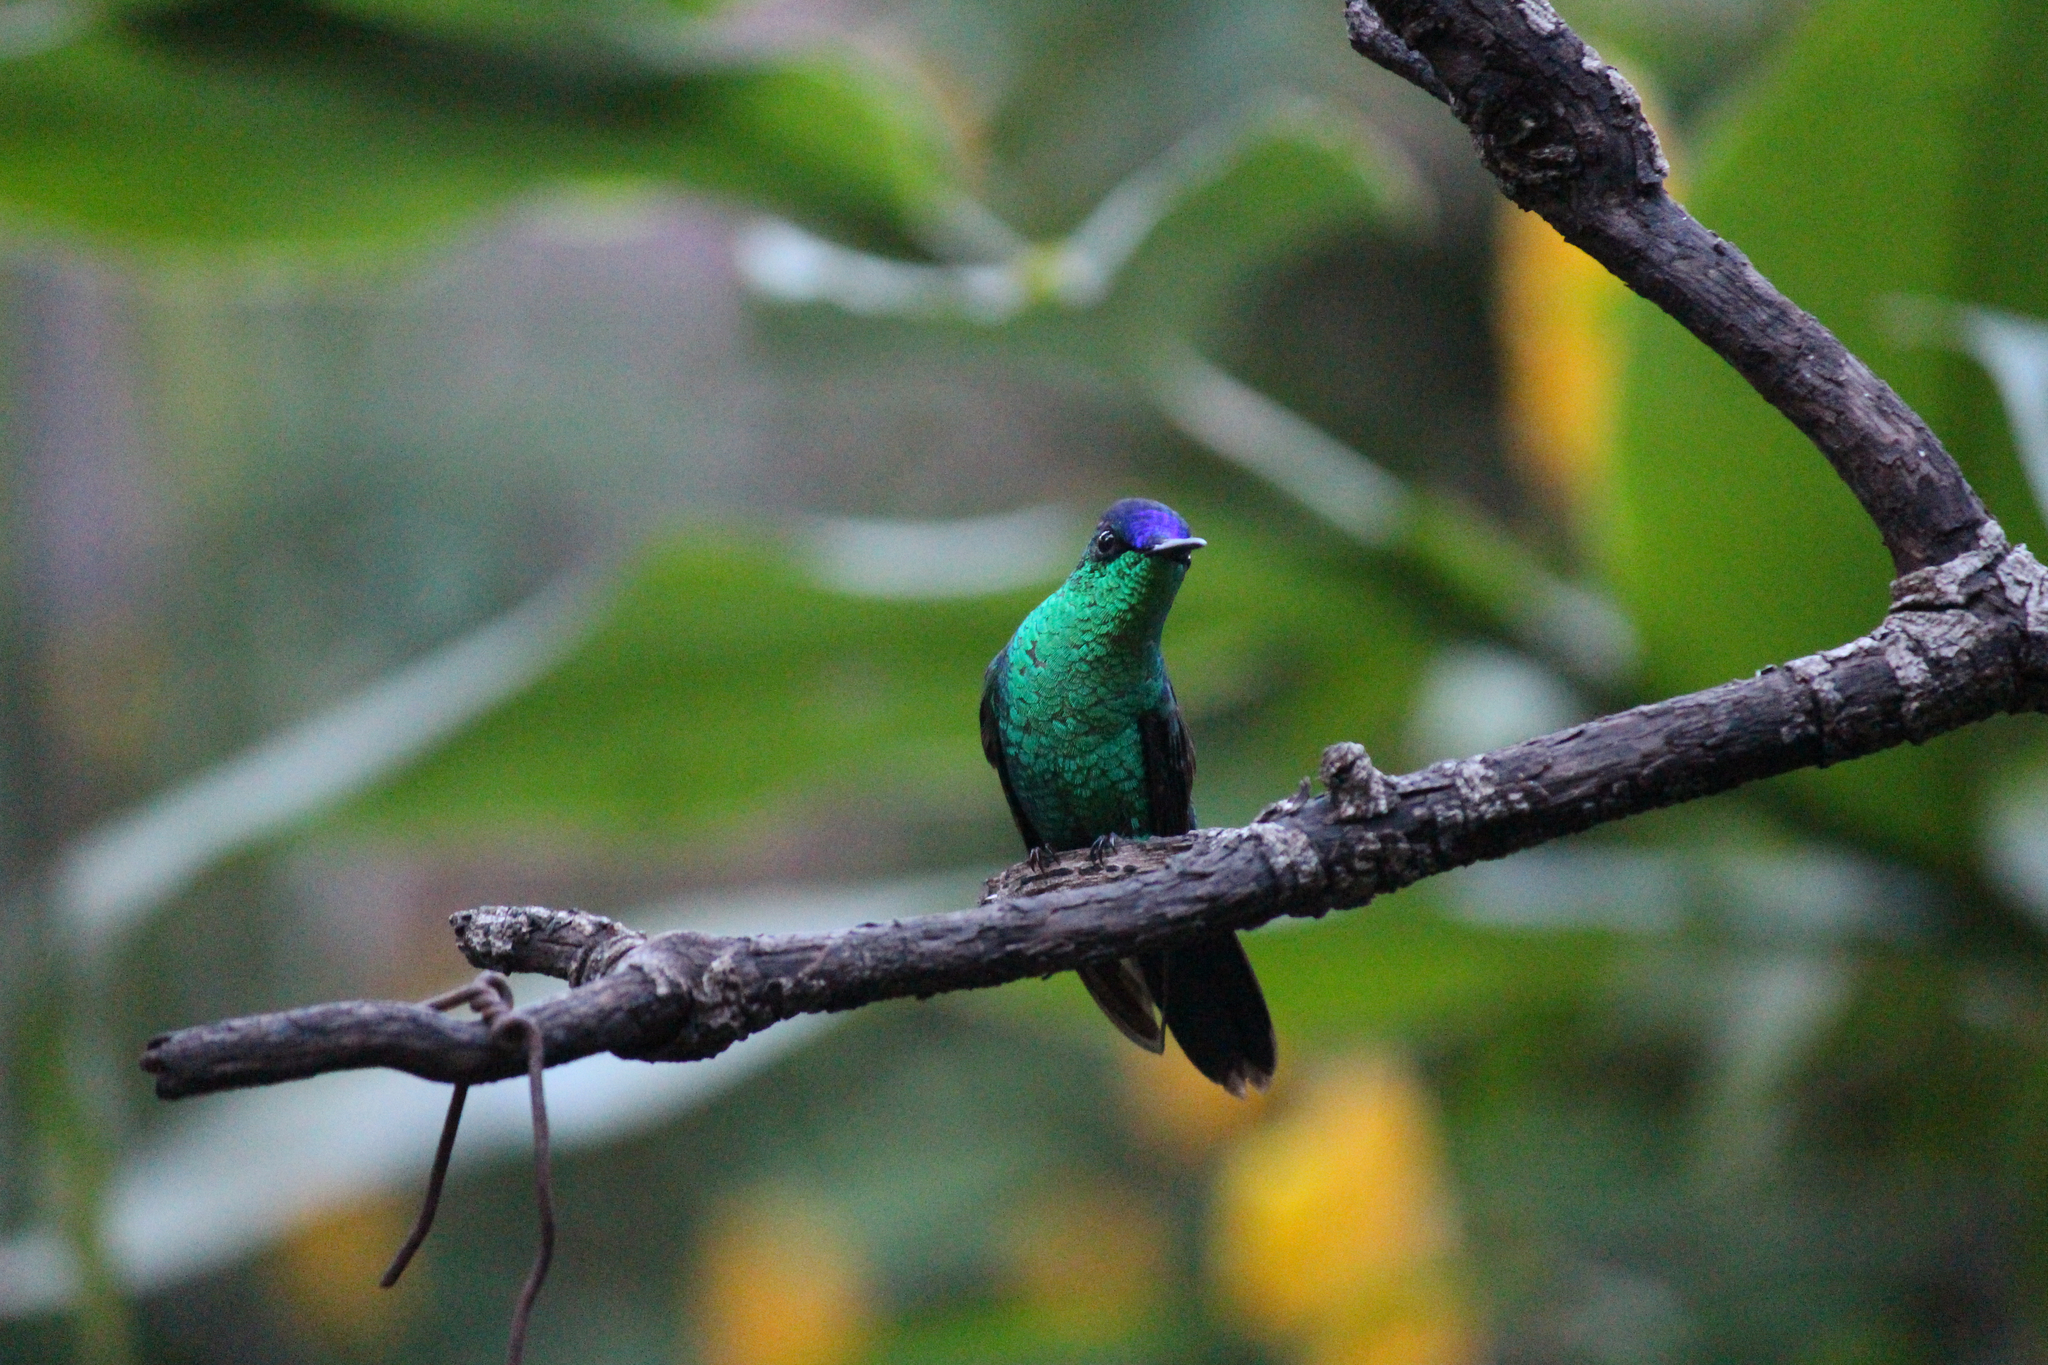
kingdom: Animalia
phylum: Chordata
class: Aves
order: Apodiformes
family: Trochilidae
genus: Thalurania
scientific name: Thalurania glaucopis
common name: Violet-capped woodnymph
